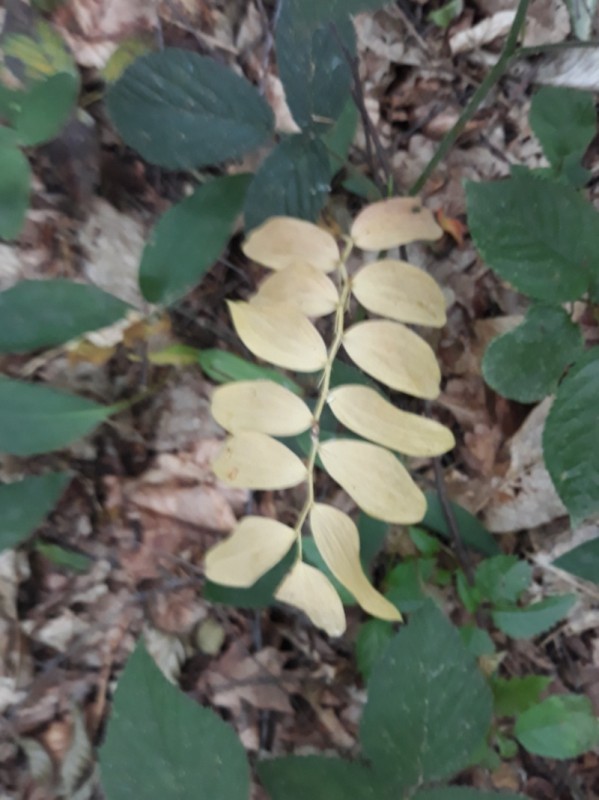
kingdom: Plantae
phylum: Tracheophyta
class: Liliopsida
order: Asparagales
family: Asparagaceae
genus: Polygonatum
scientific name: Polygonatum multiflorum
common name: Solomon's-seal
